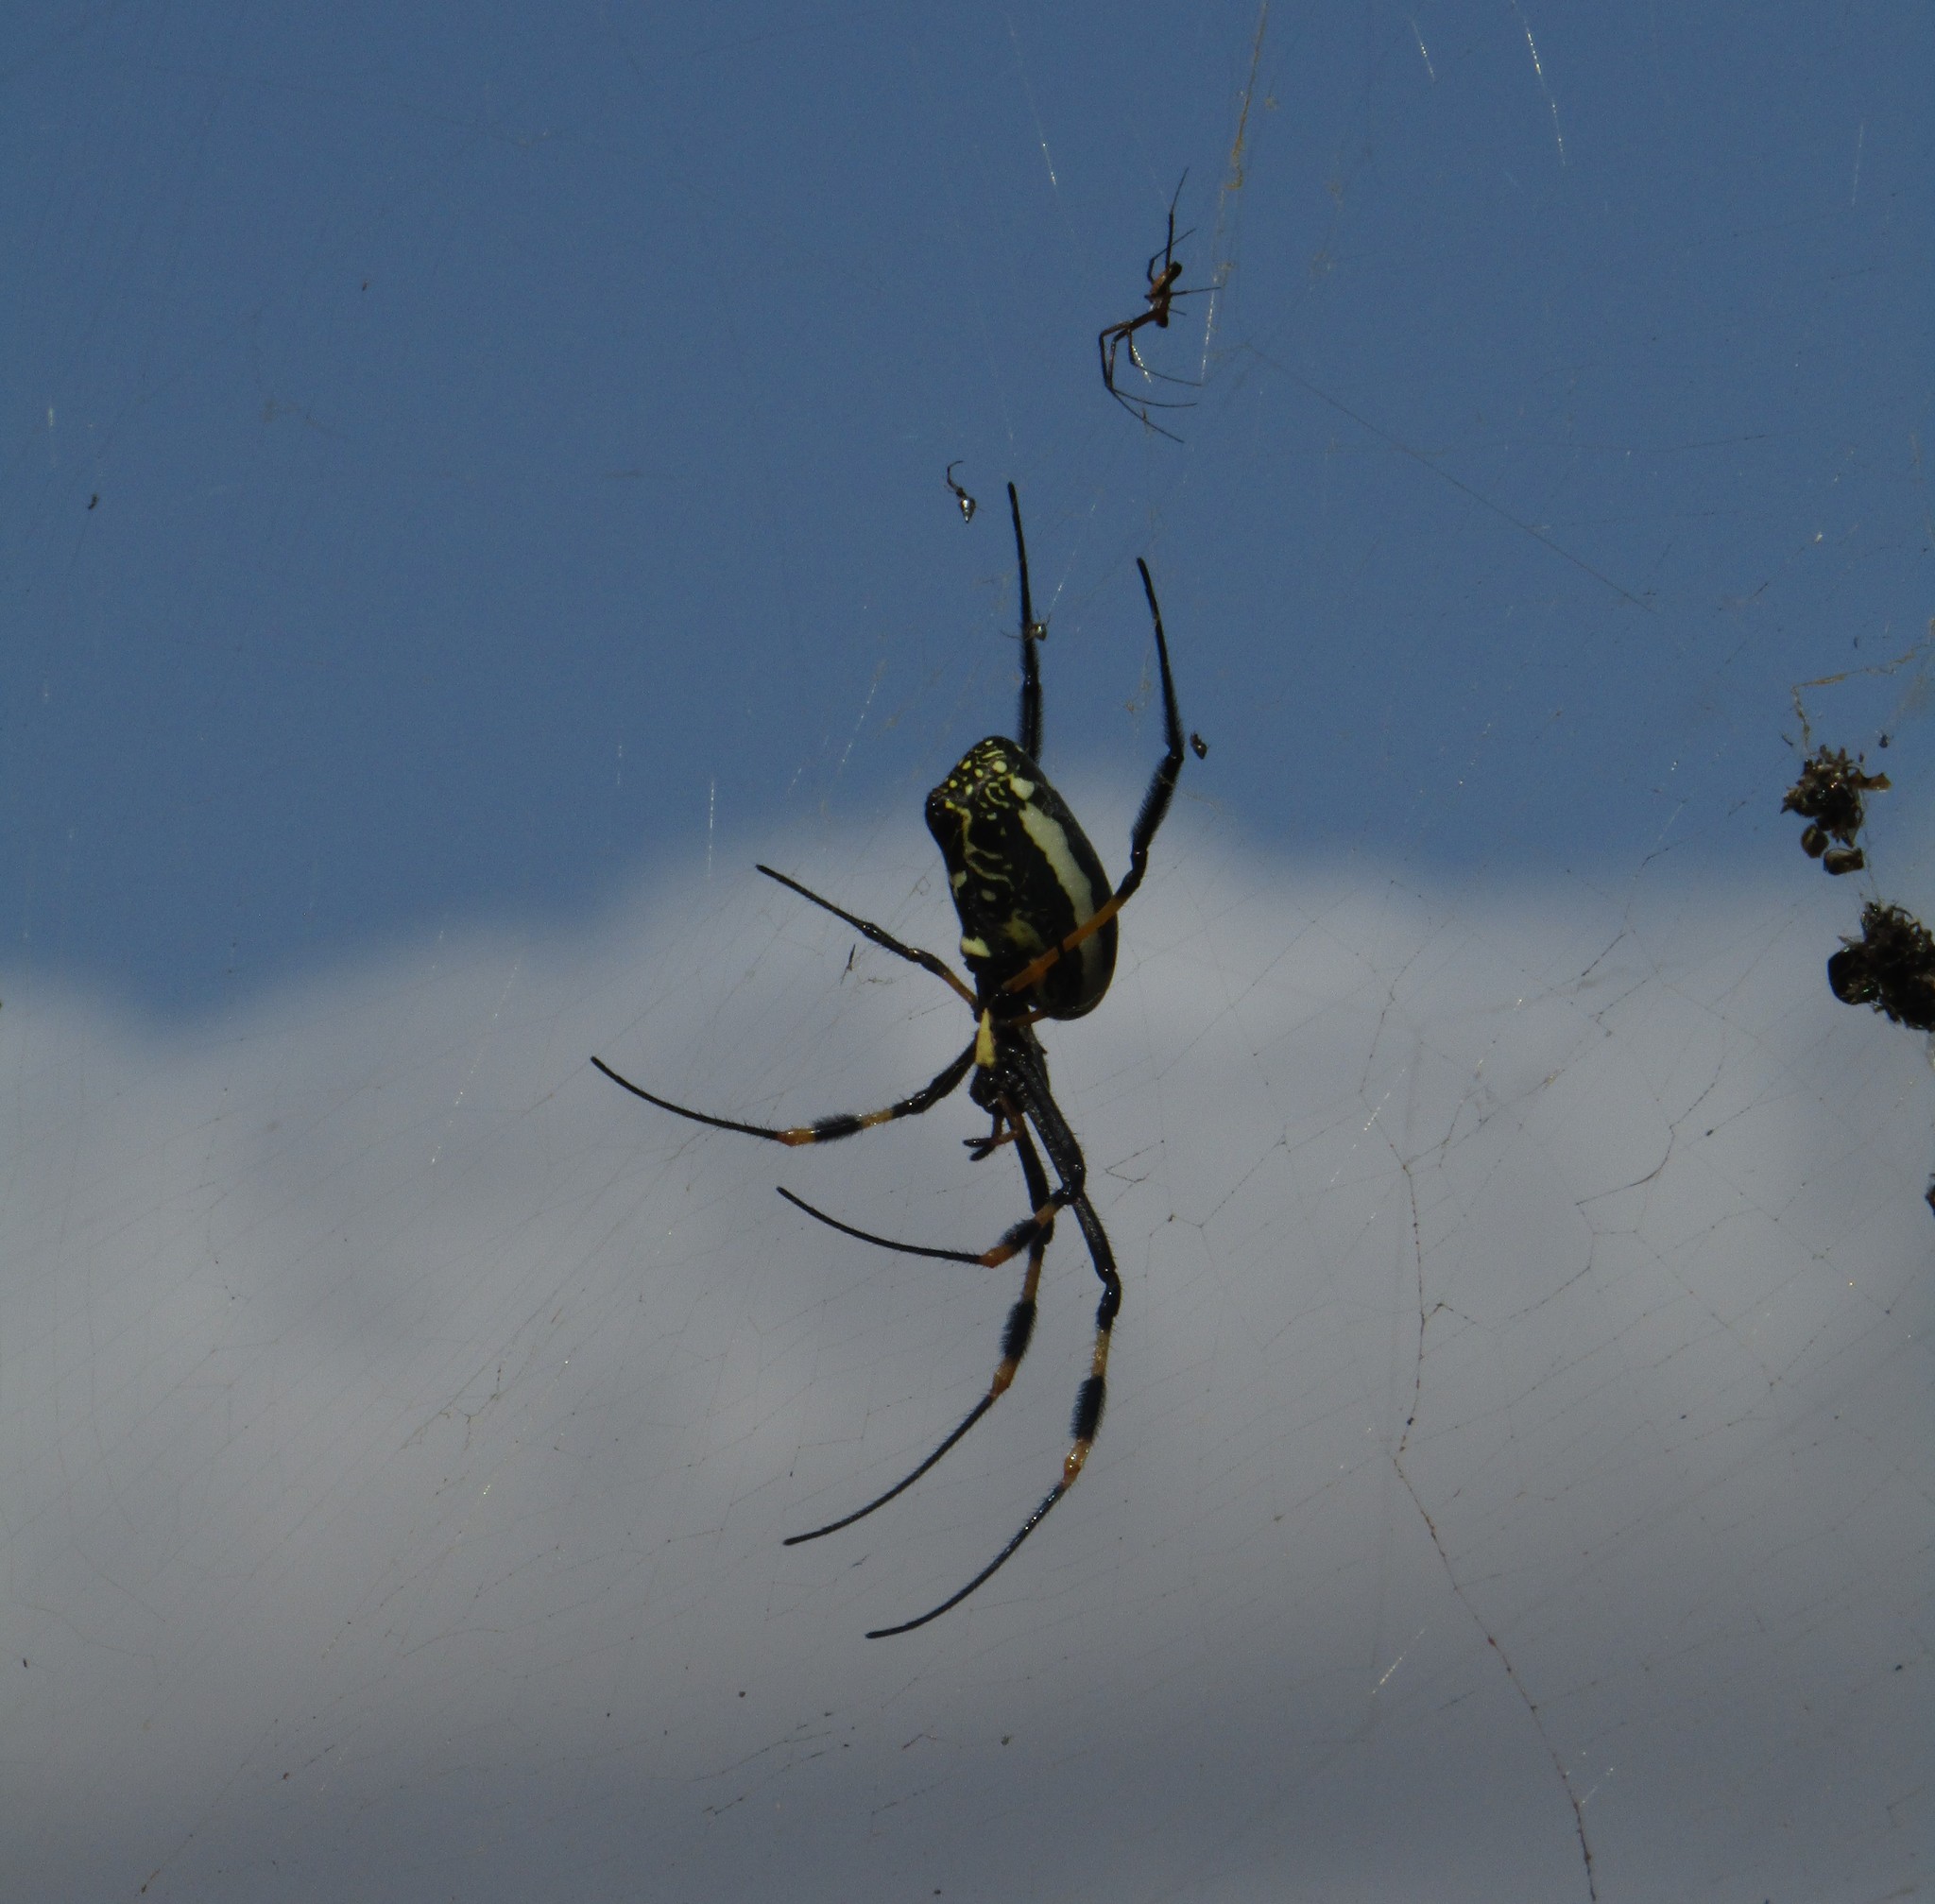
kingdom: Animalia
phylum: Arthropoda
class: Arachnida
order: Araneae
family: Araneidae
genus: Trichonephila
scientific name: Trichonephila senegalensis
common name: Banded golden orb weaver
